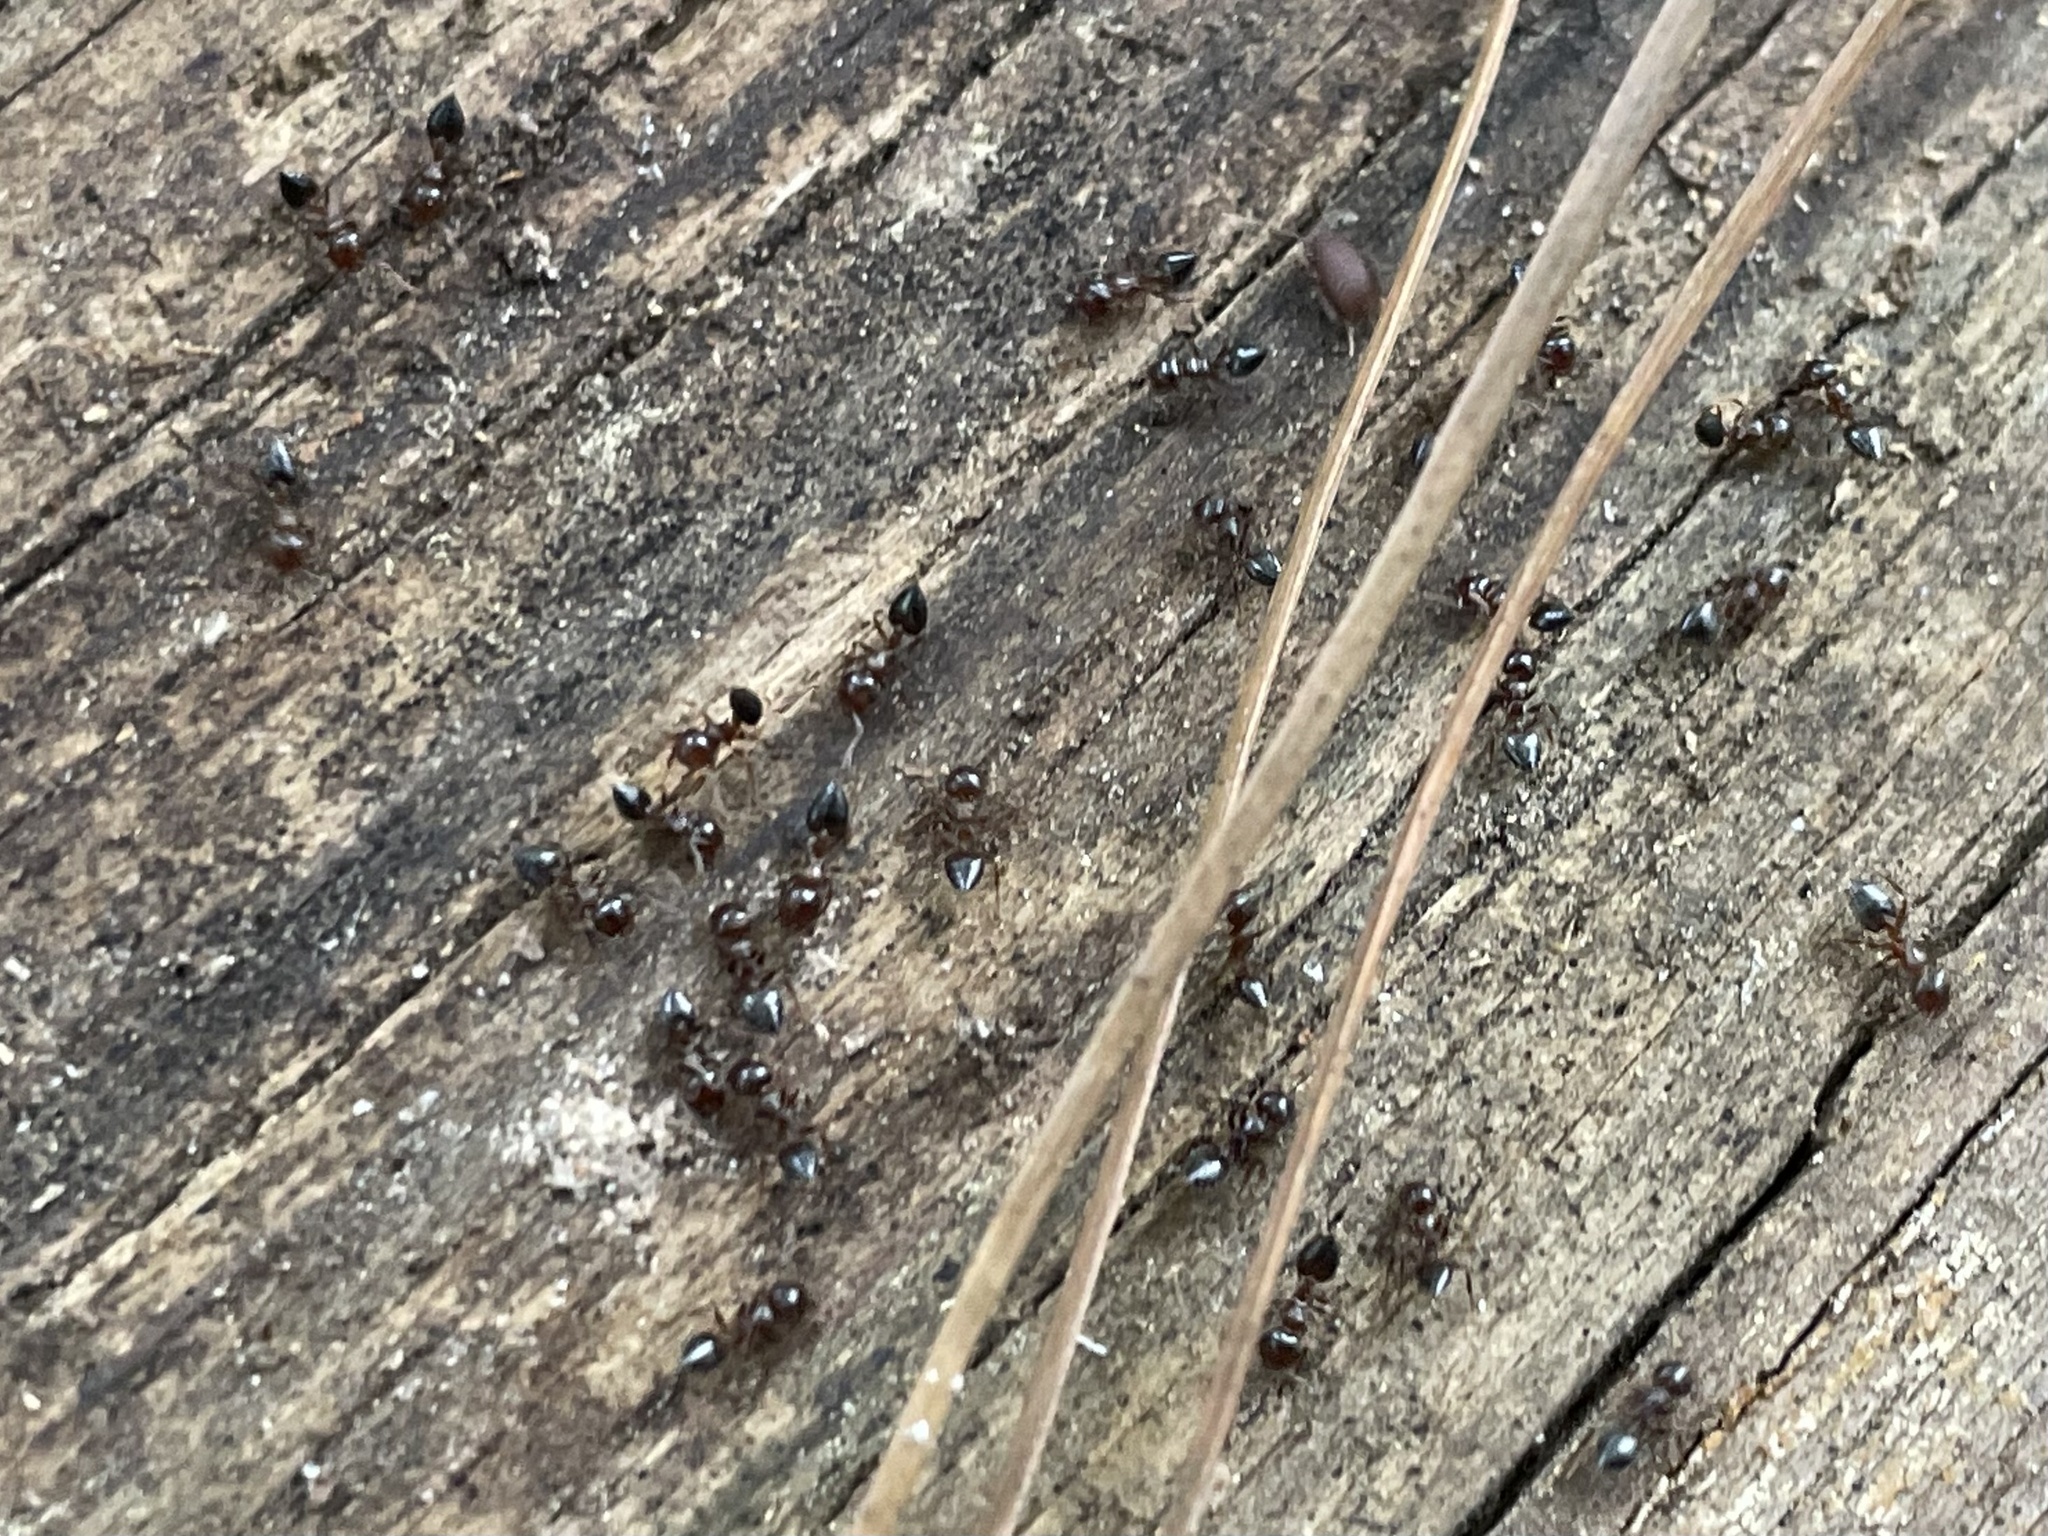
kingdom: Animalia
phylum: Arthropoda
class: Insecta
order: Hymenoptera
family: Formicidae
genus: Crematogaster
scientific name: Crematogaster ashmeadi
